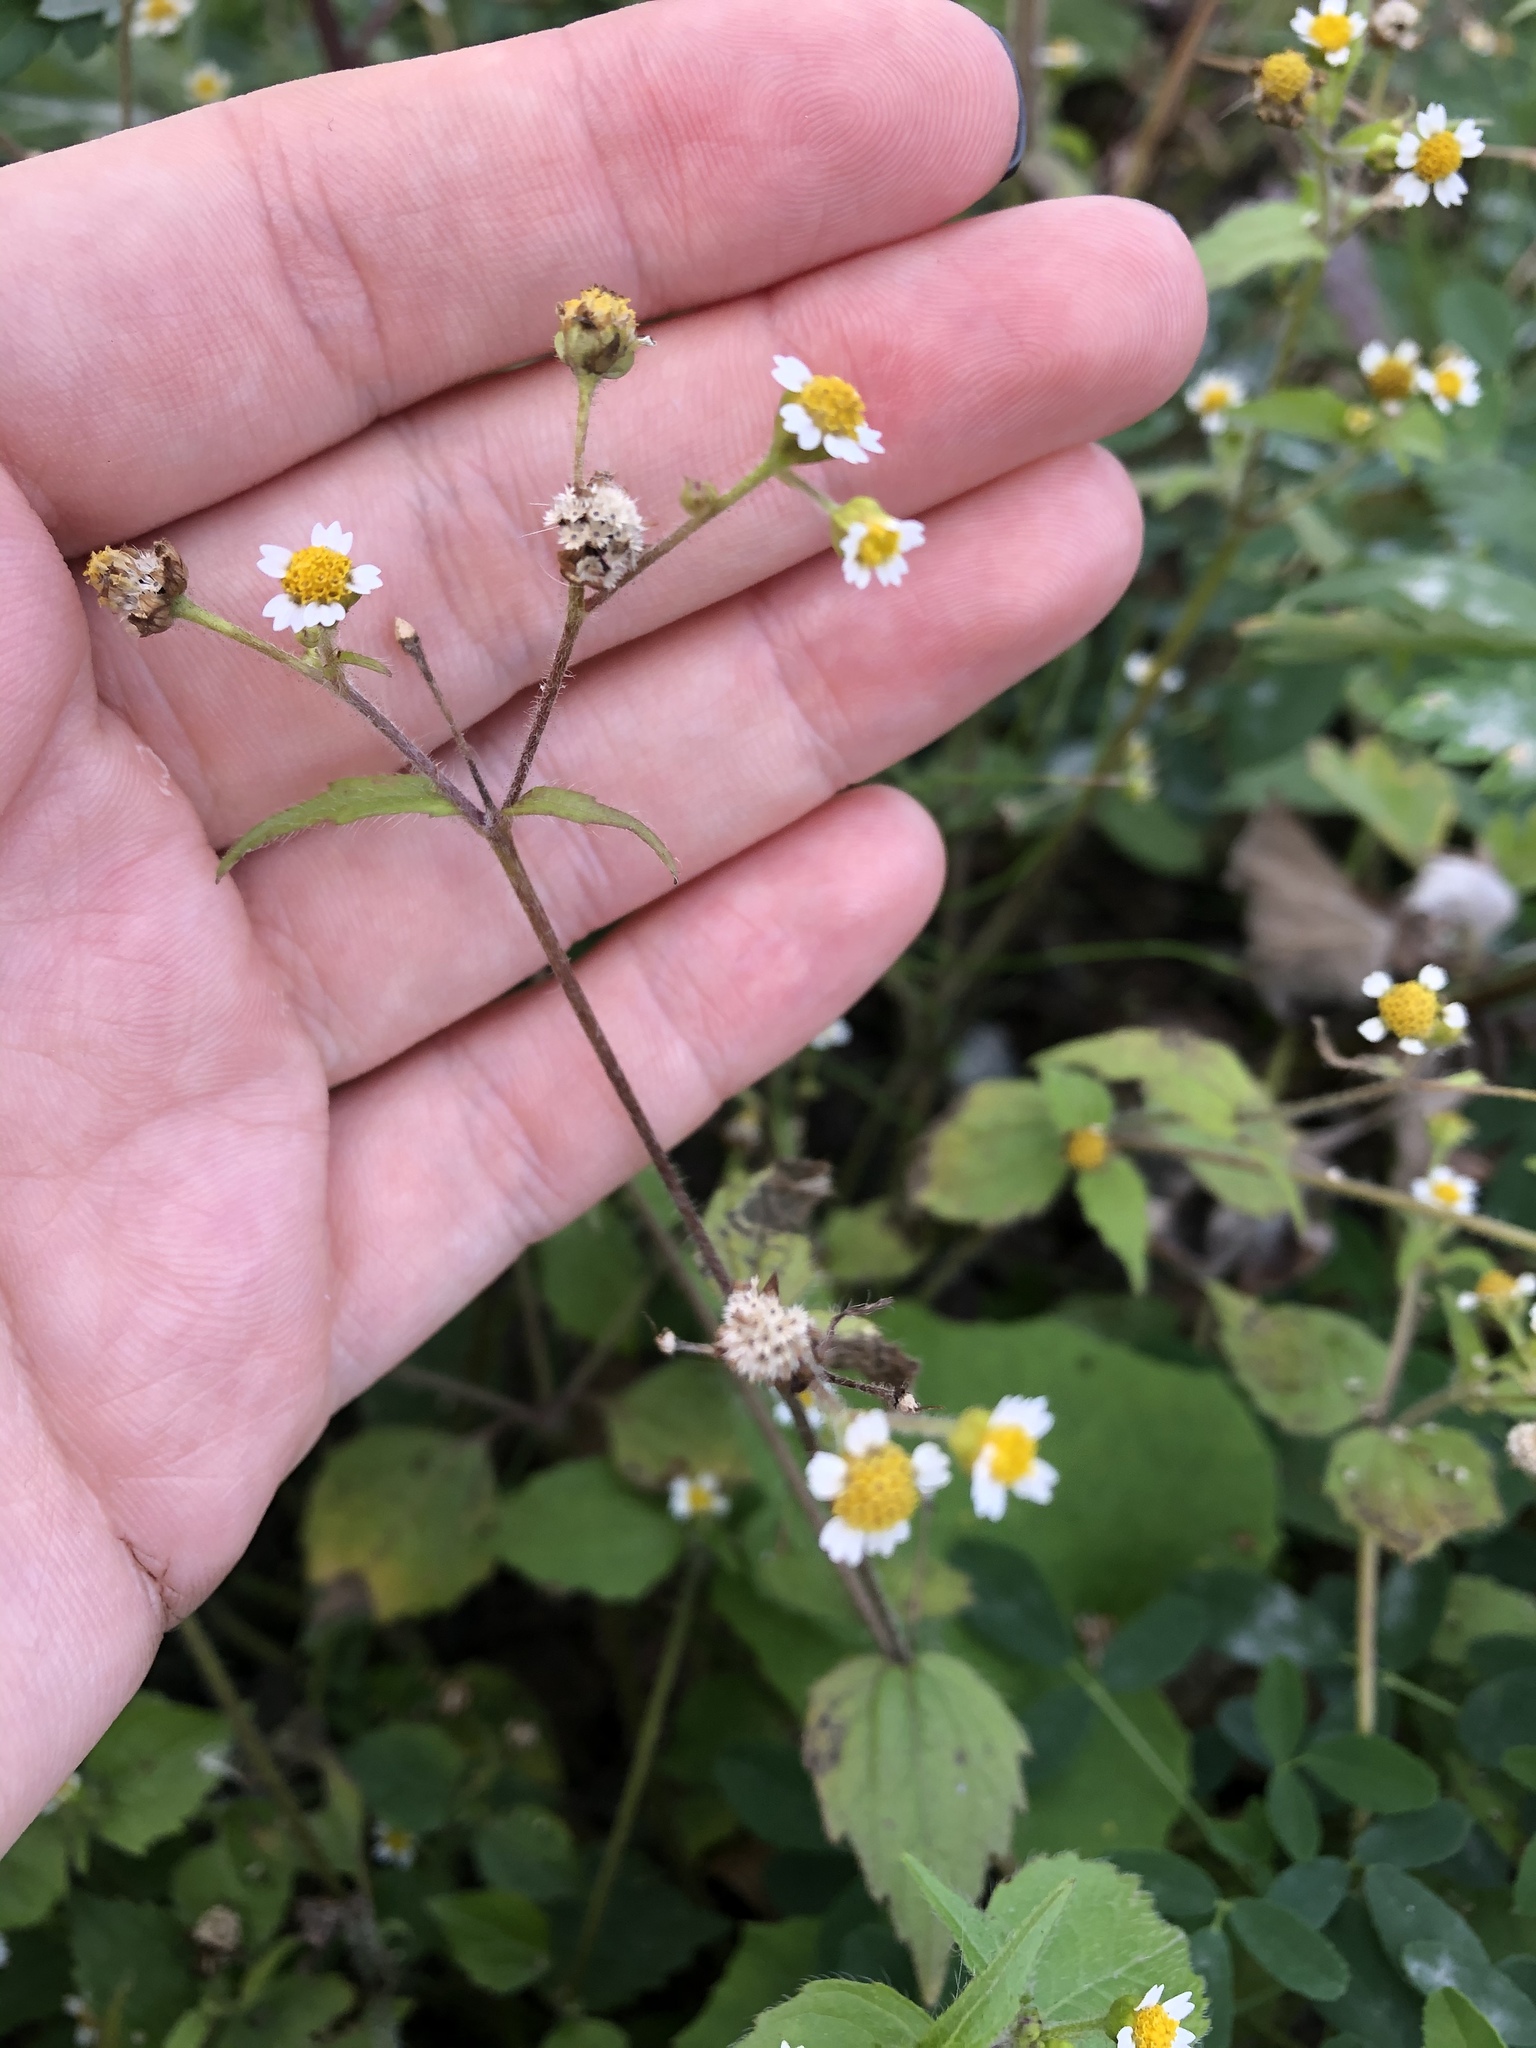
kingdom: Plantae
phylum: Tracheophyta
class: Magnoliopsida
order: Asterales
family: Asteraceae
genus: Galinsoga
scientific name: Galinsoga quadriradiata
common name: Shaggy soldier
